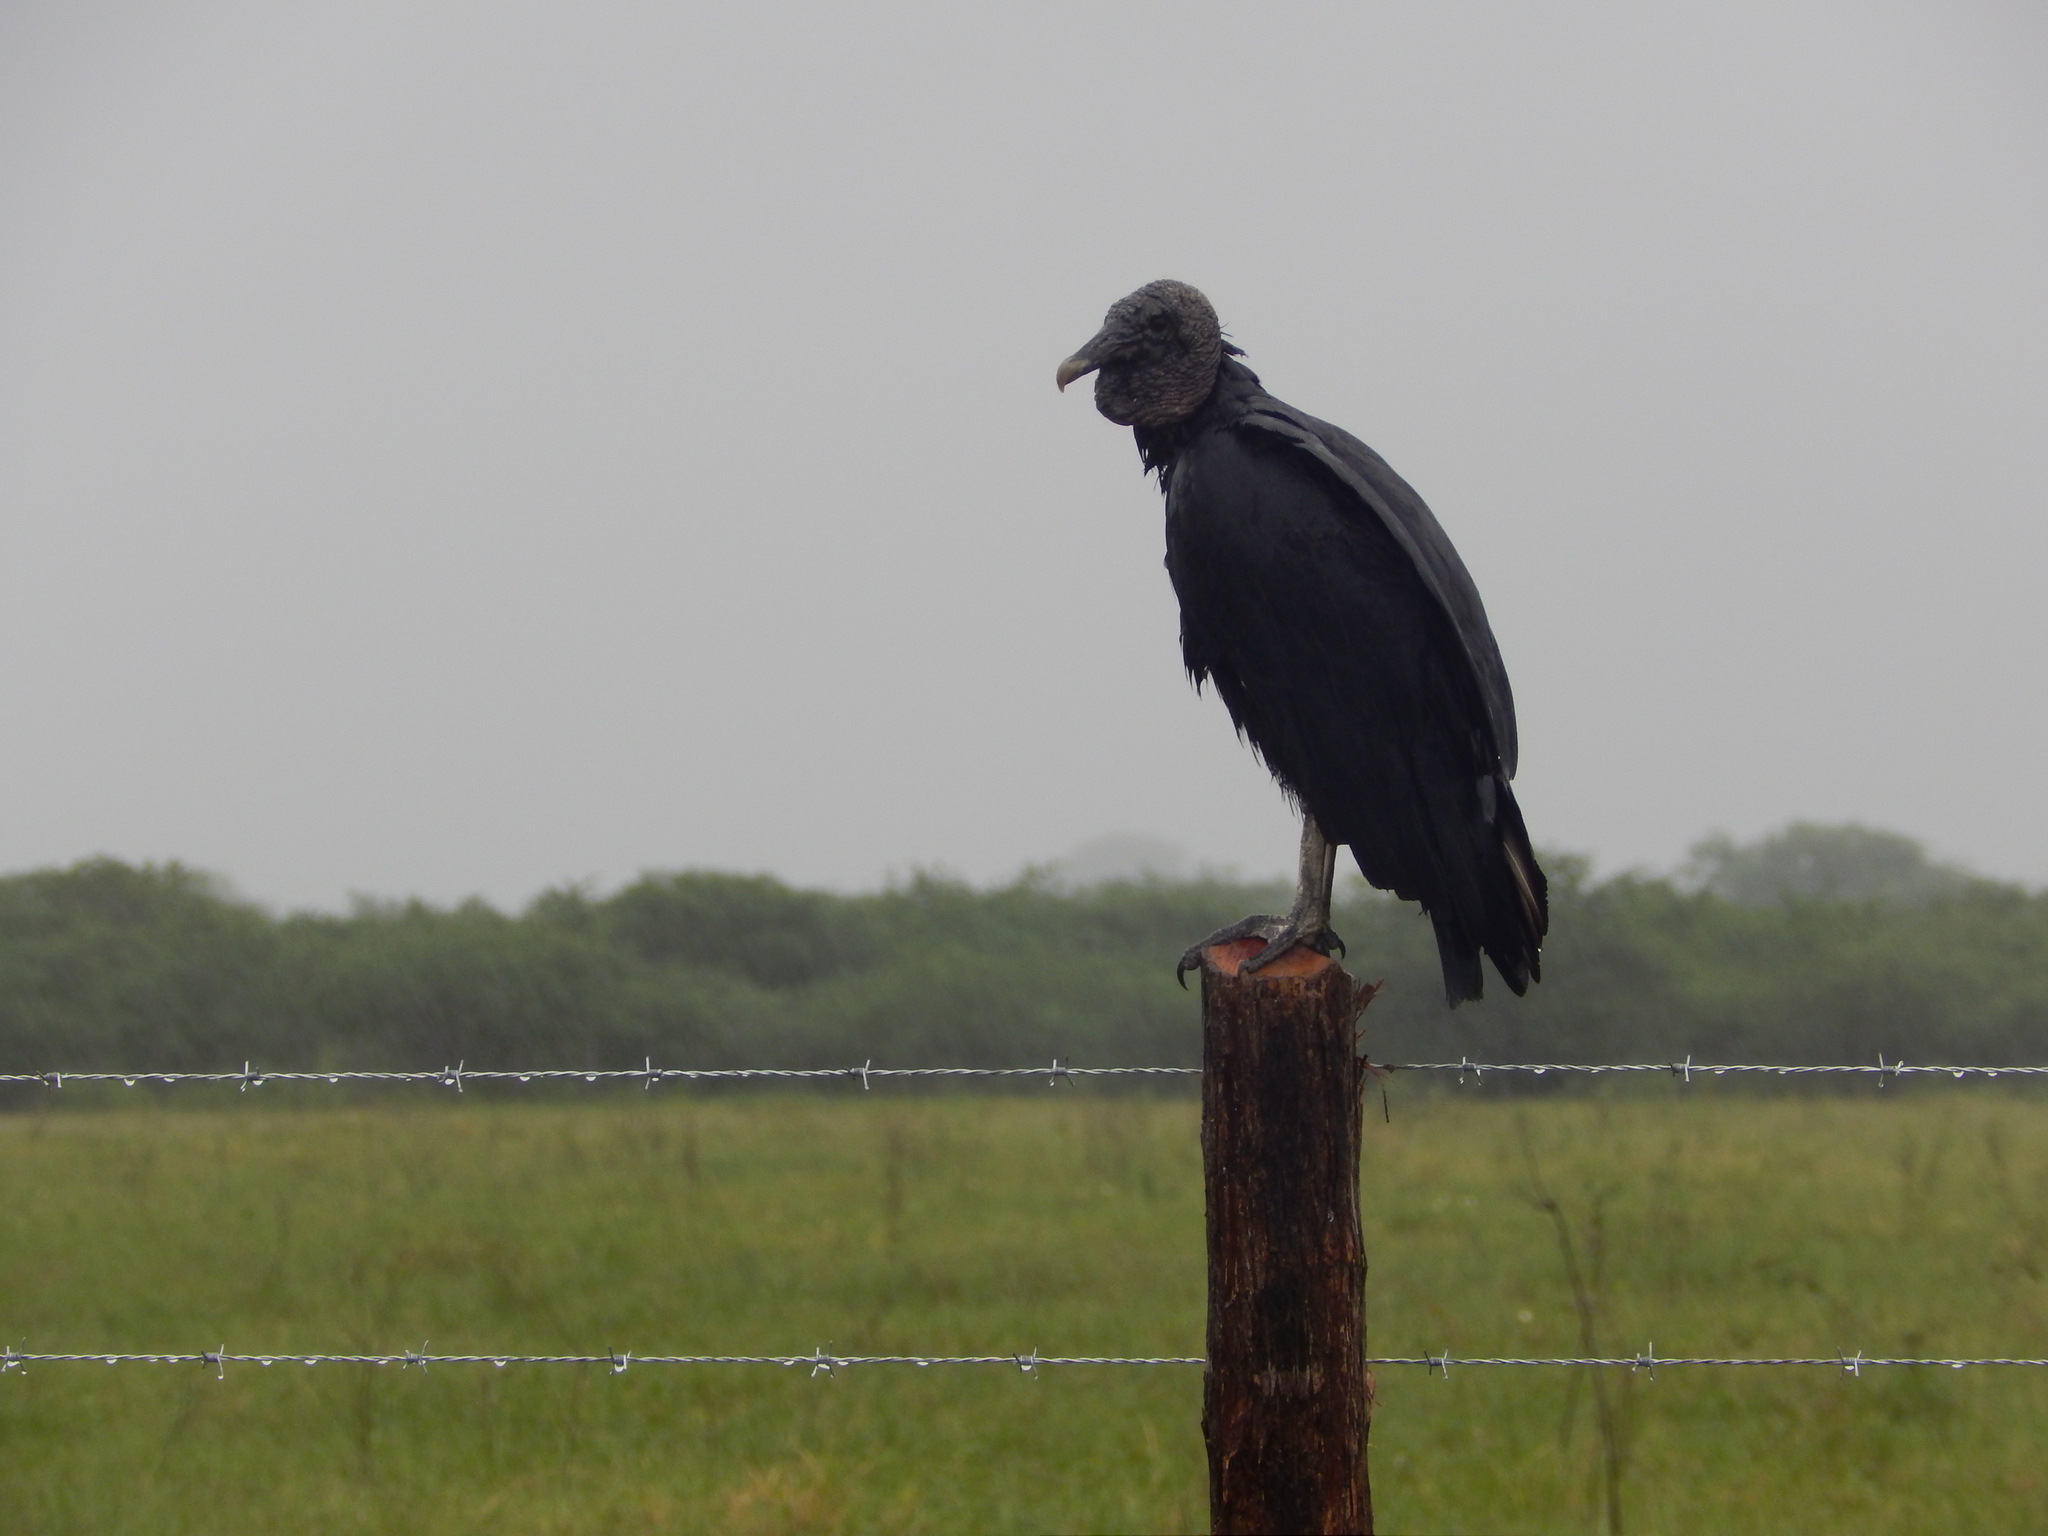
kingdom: Animalia
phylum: Chordata
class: Aves
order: Accipitriformes
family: Cathartidae
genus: Coragyps
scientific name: Coragyps atratus
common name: Black vulture
